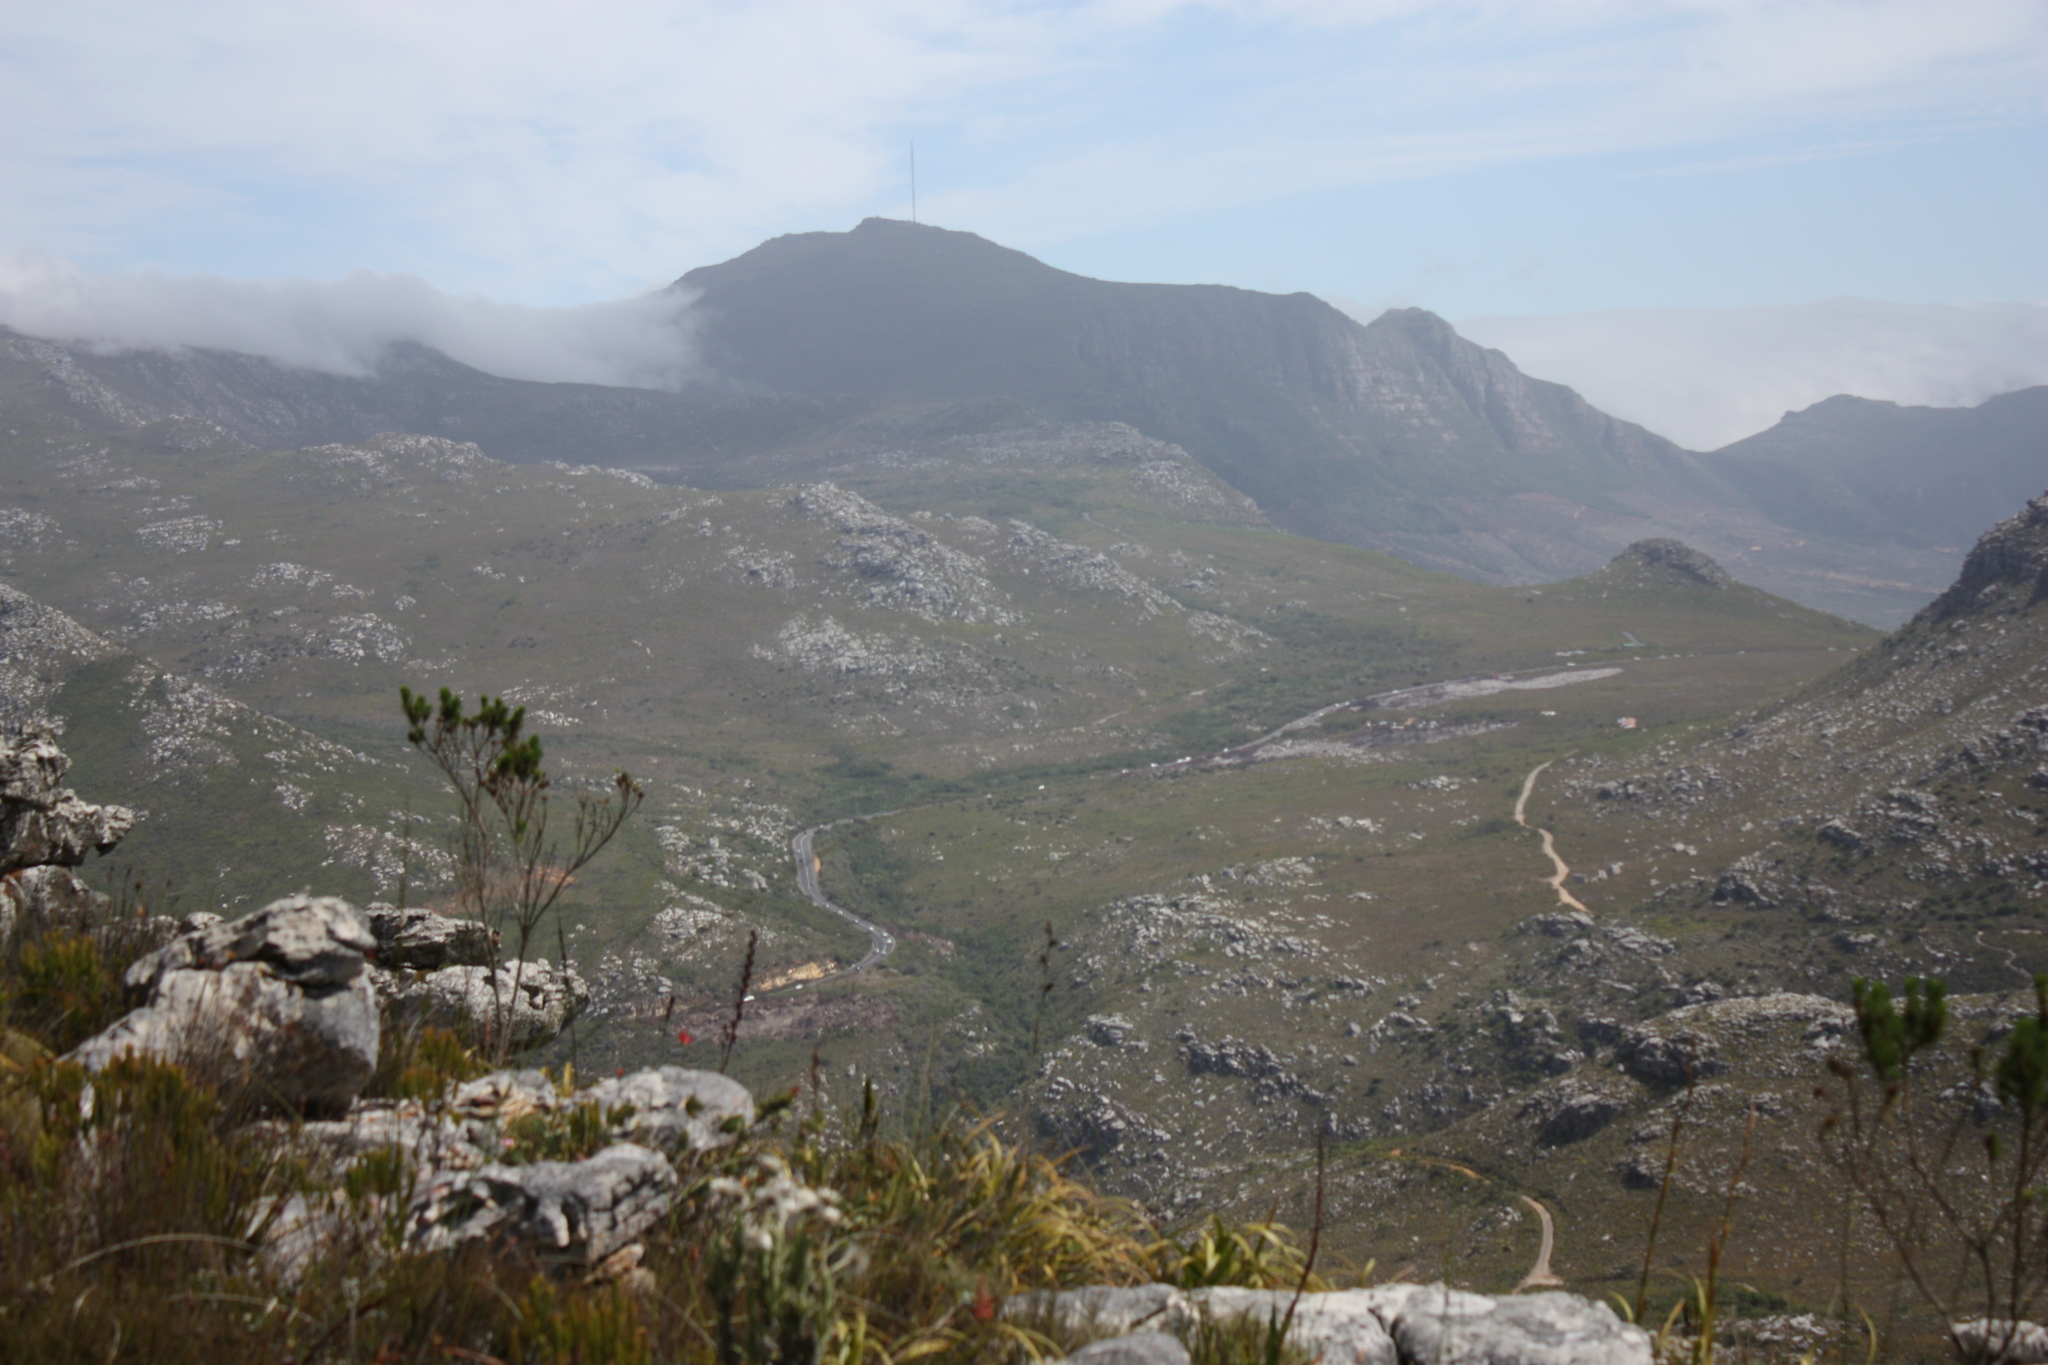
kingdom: Plantae
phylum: Tracheophyta
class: Magnoliopsida
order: Fabales
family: Fabaceae
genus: Psoralea
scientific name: Psoralea pinnata
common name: African scurfpea
